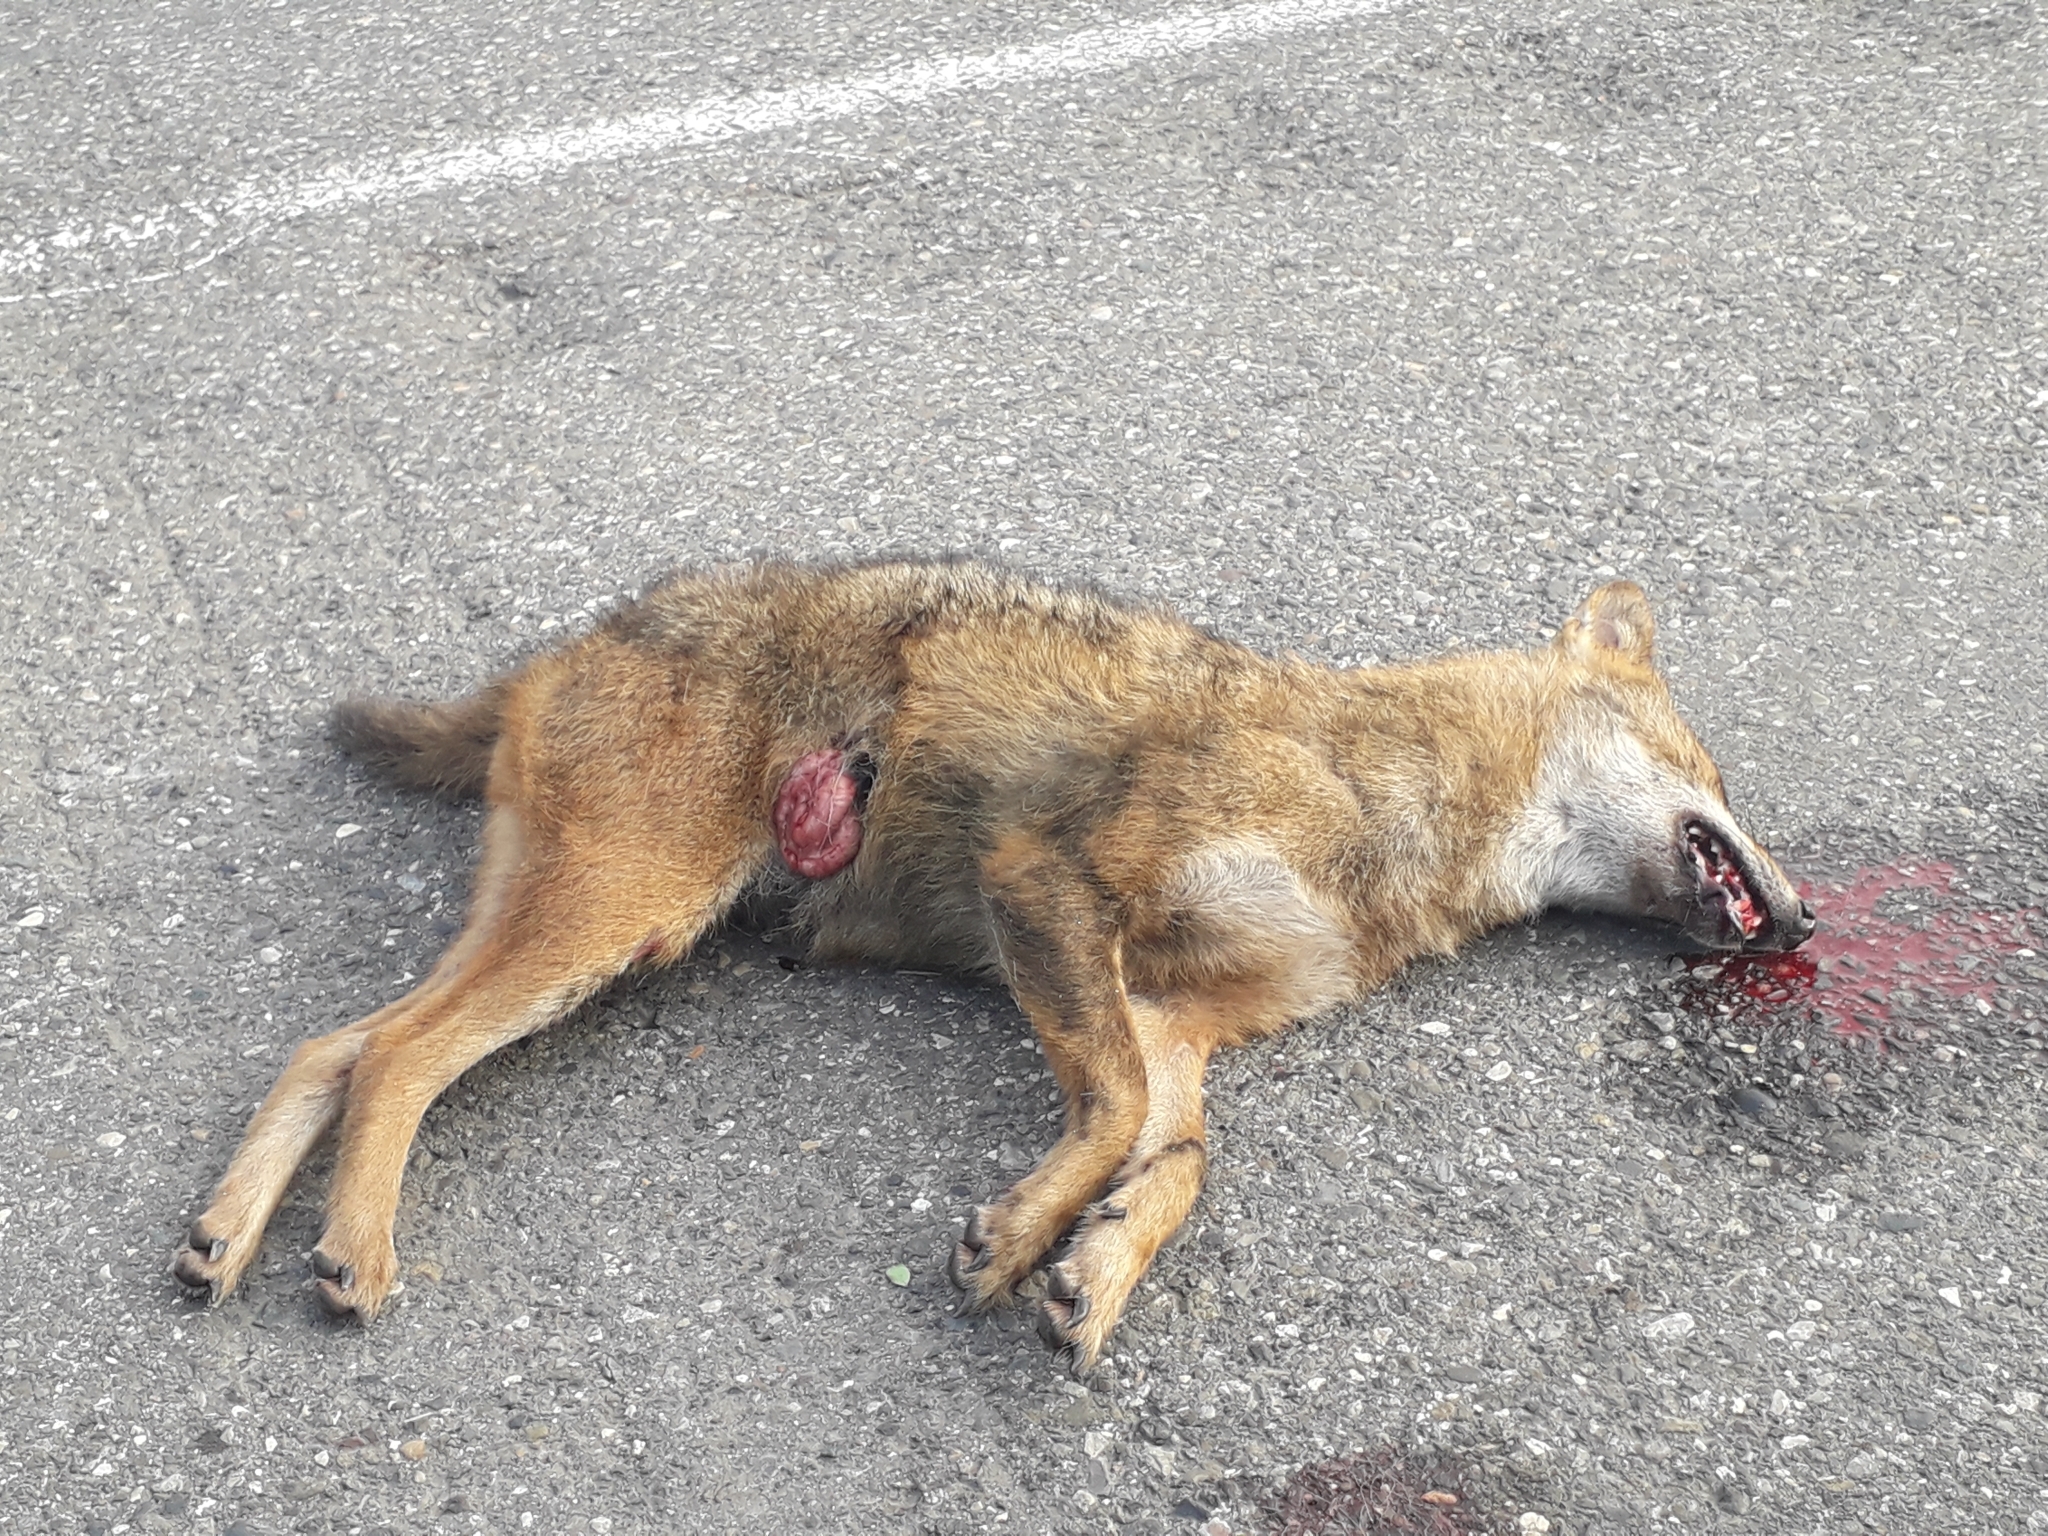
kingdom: Animalia
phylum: Chordata
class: Mammalia
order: Carnivora
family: Canidae
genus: Canis
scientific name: Canis aureus
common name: Golden jackal
